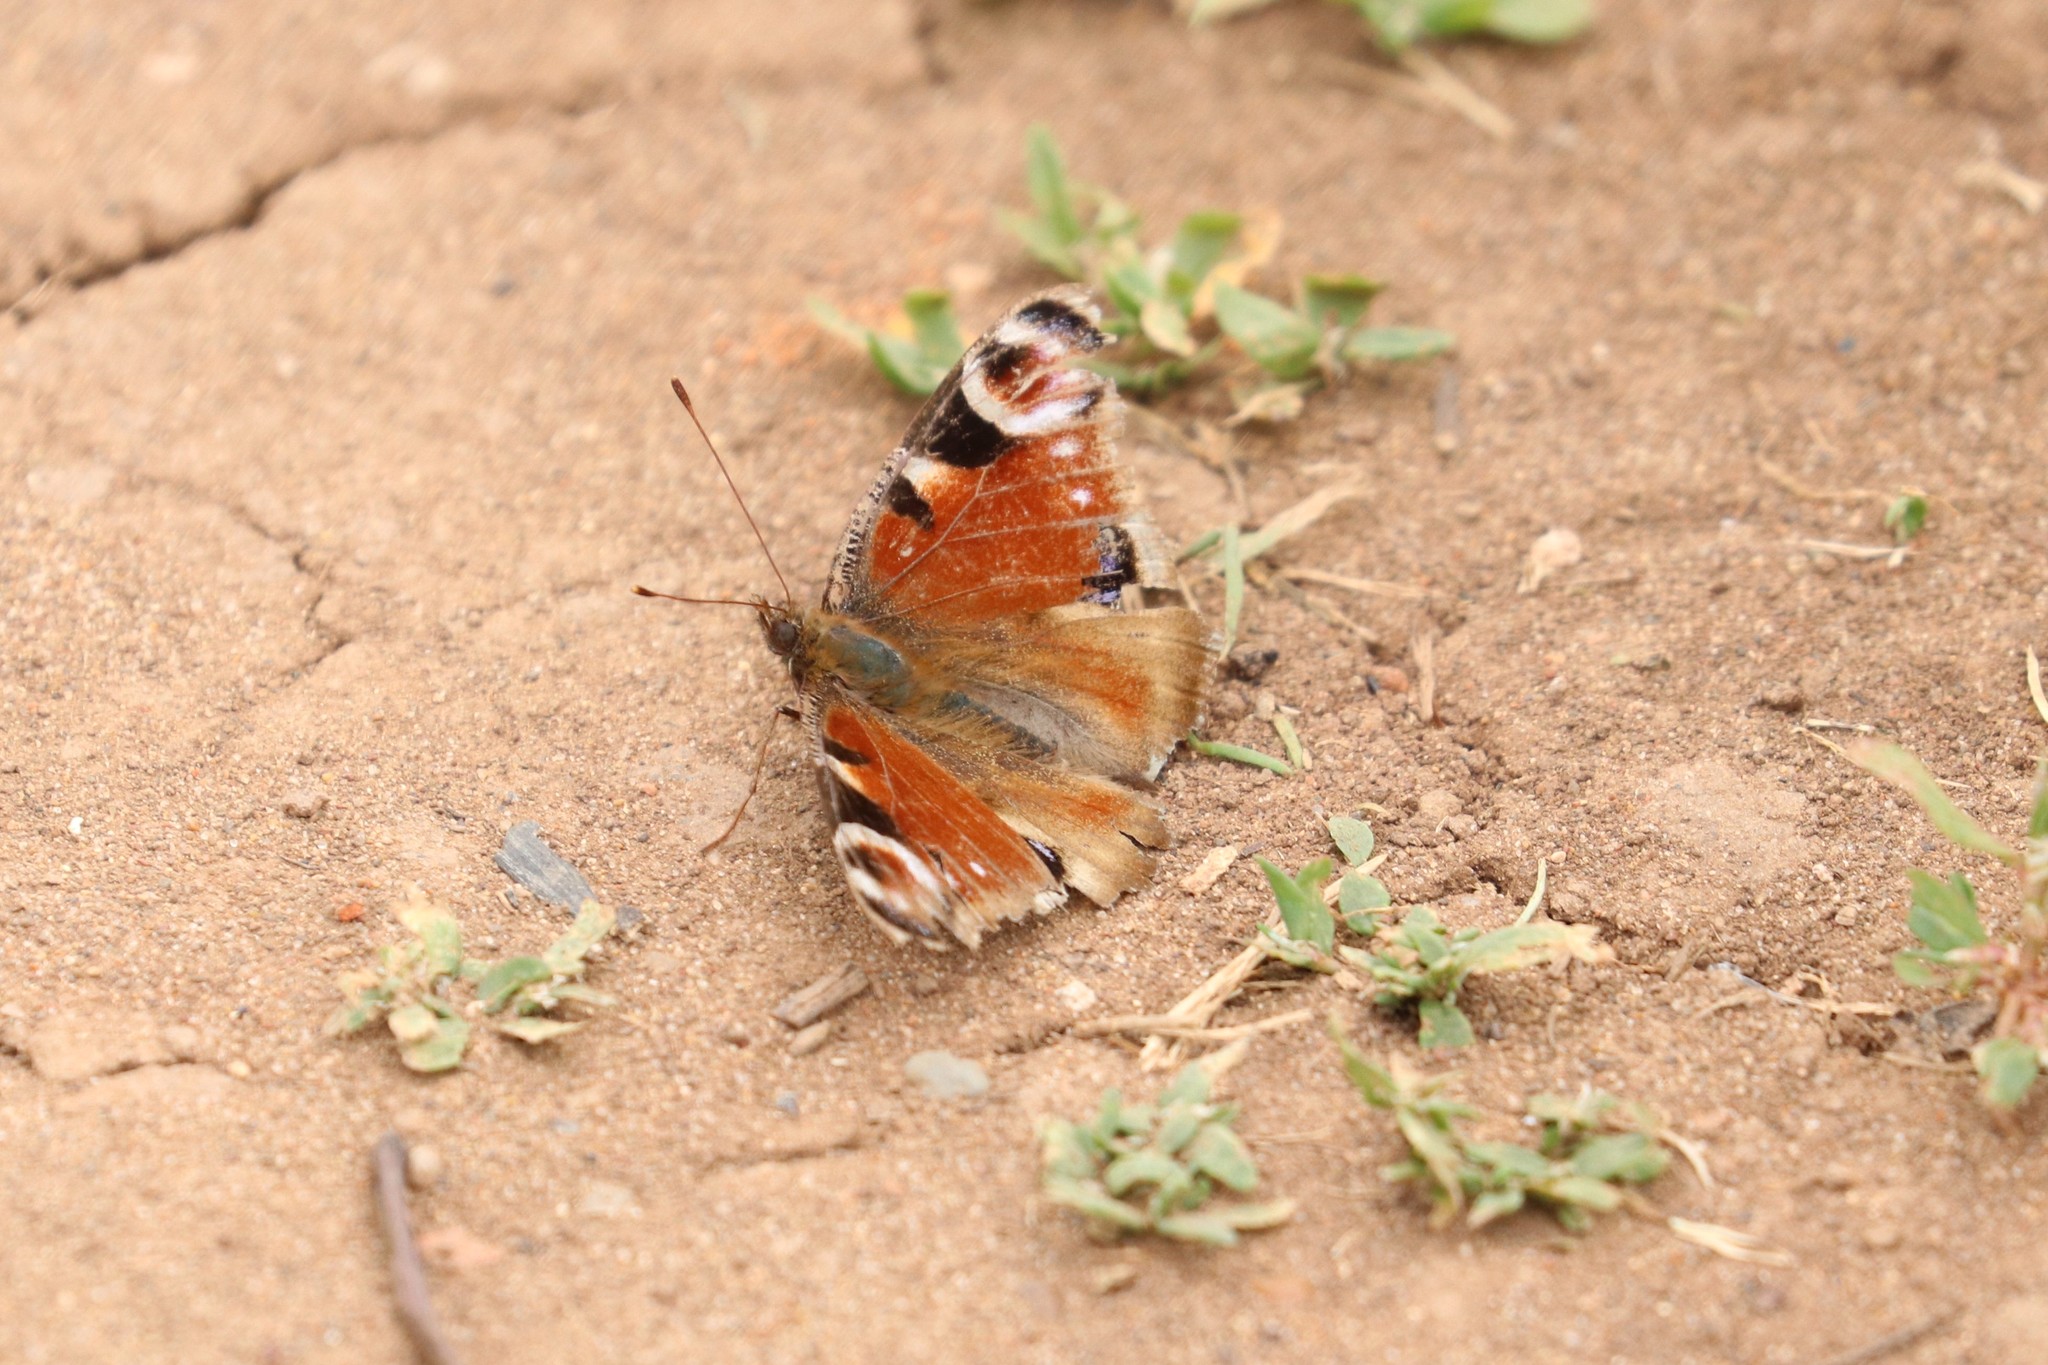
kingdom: Animalia
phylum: Arthropoda
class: Insecta
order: Lepidoptera
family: Nymphalidae
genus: Aglais
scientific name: Aglais io
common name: Peacock
